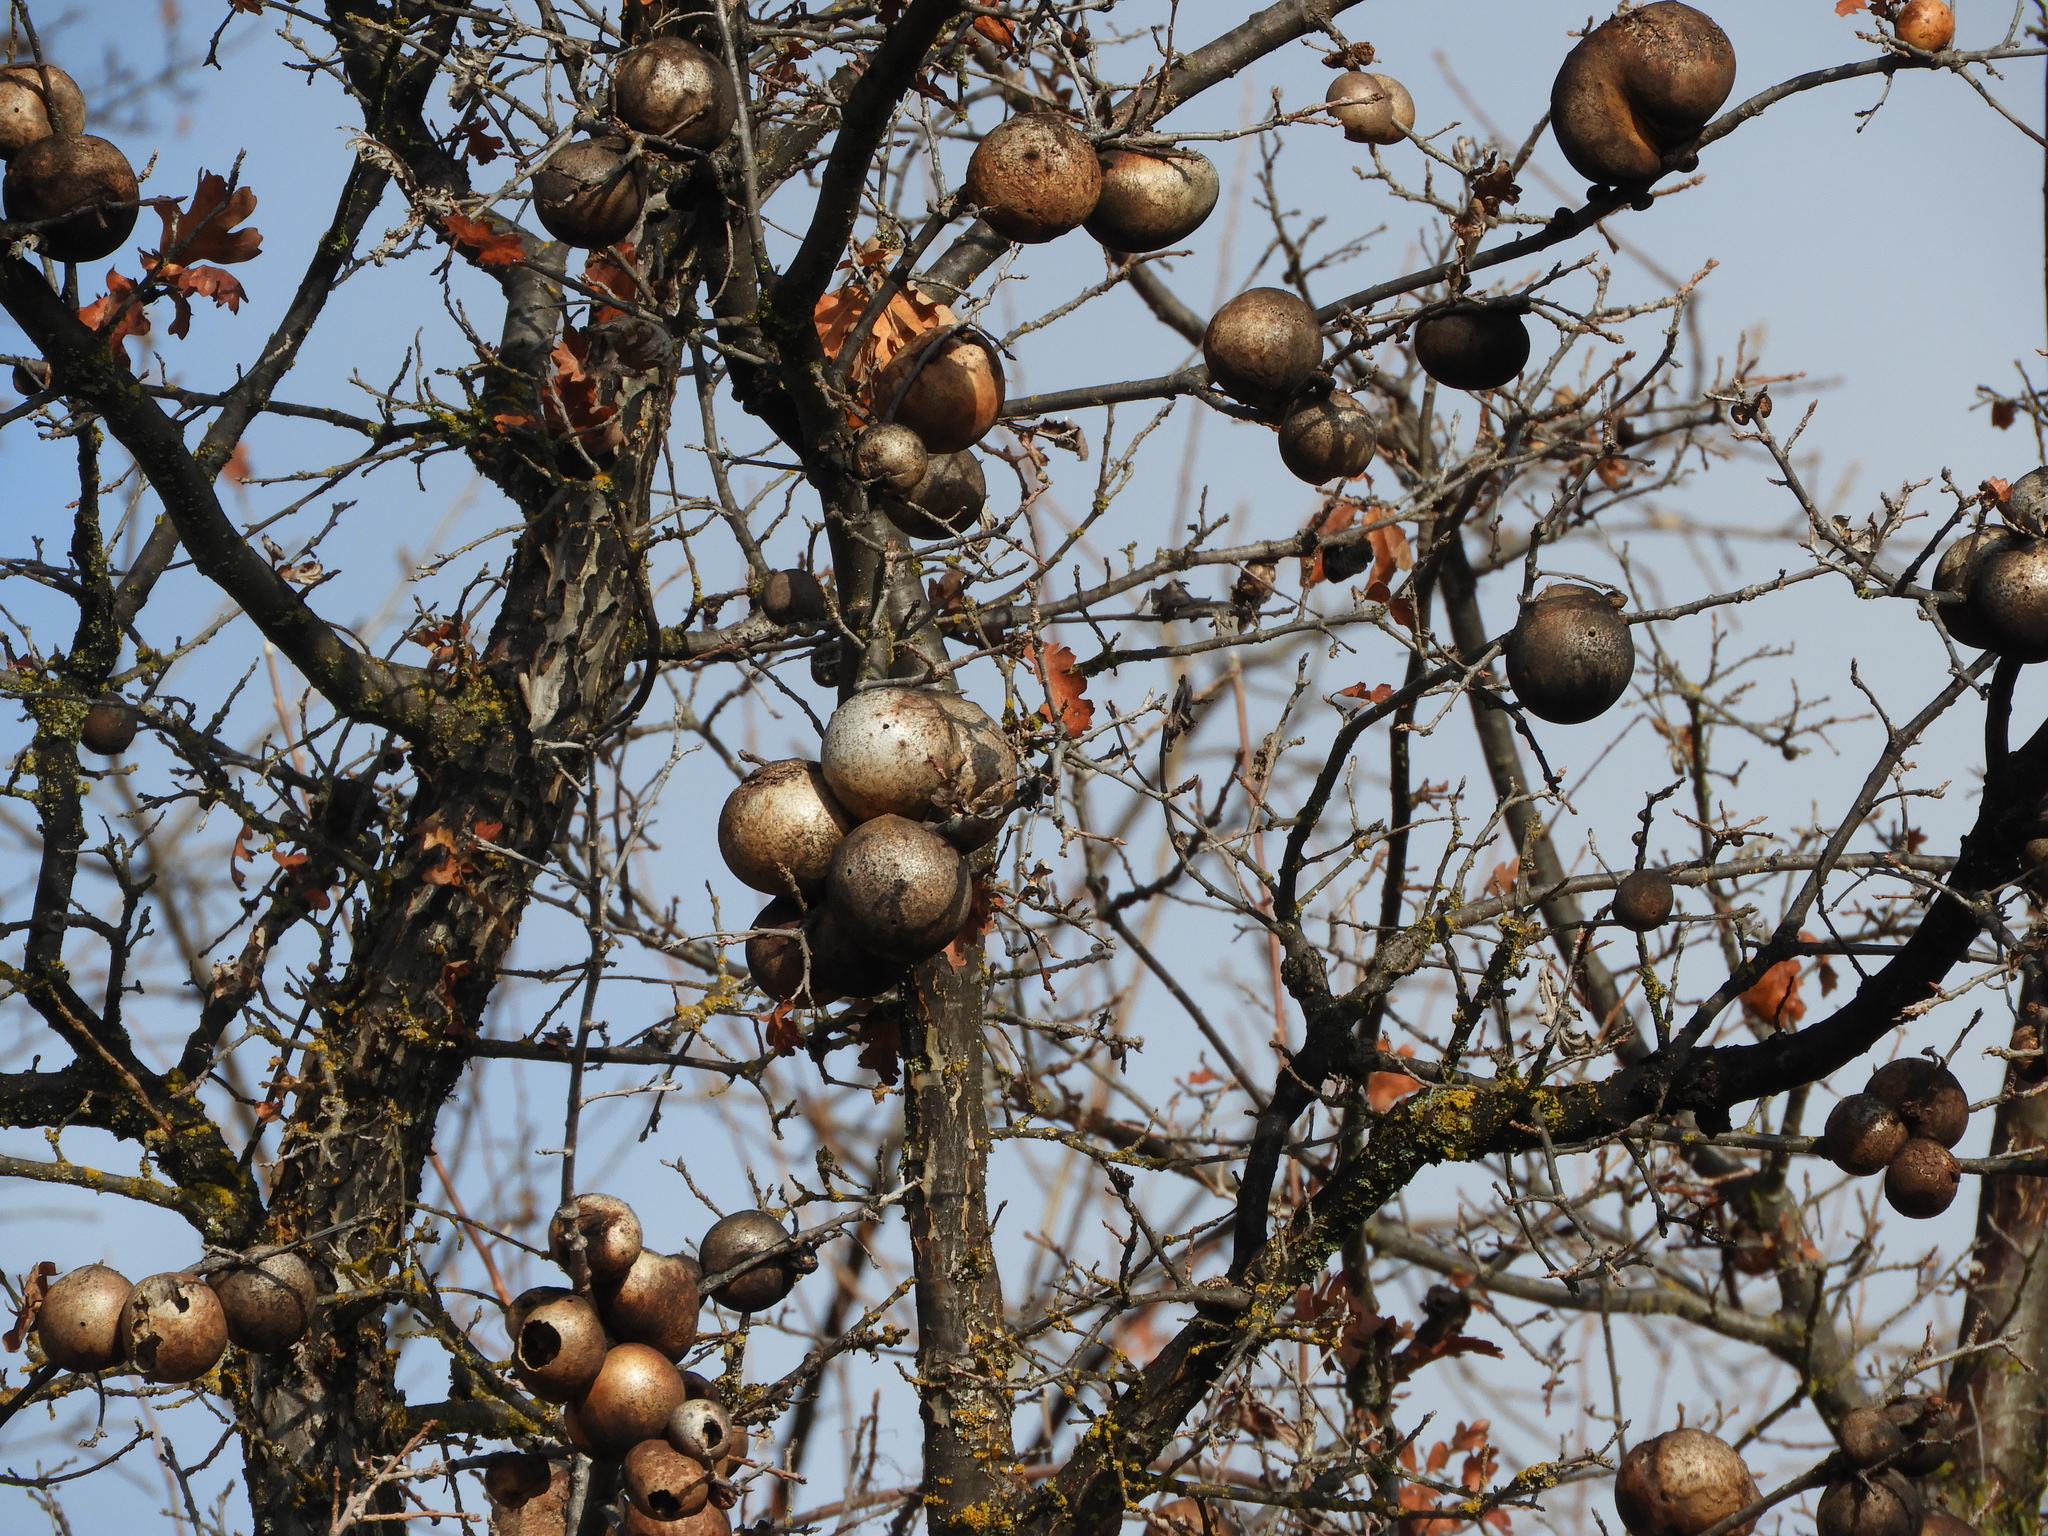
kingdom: Animalia
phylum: Arthropoda
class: Insecta
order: Hymenoptera
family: Cynipidae
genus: Andricus
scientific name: Andricus quercuscalifornicus
